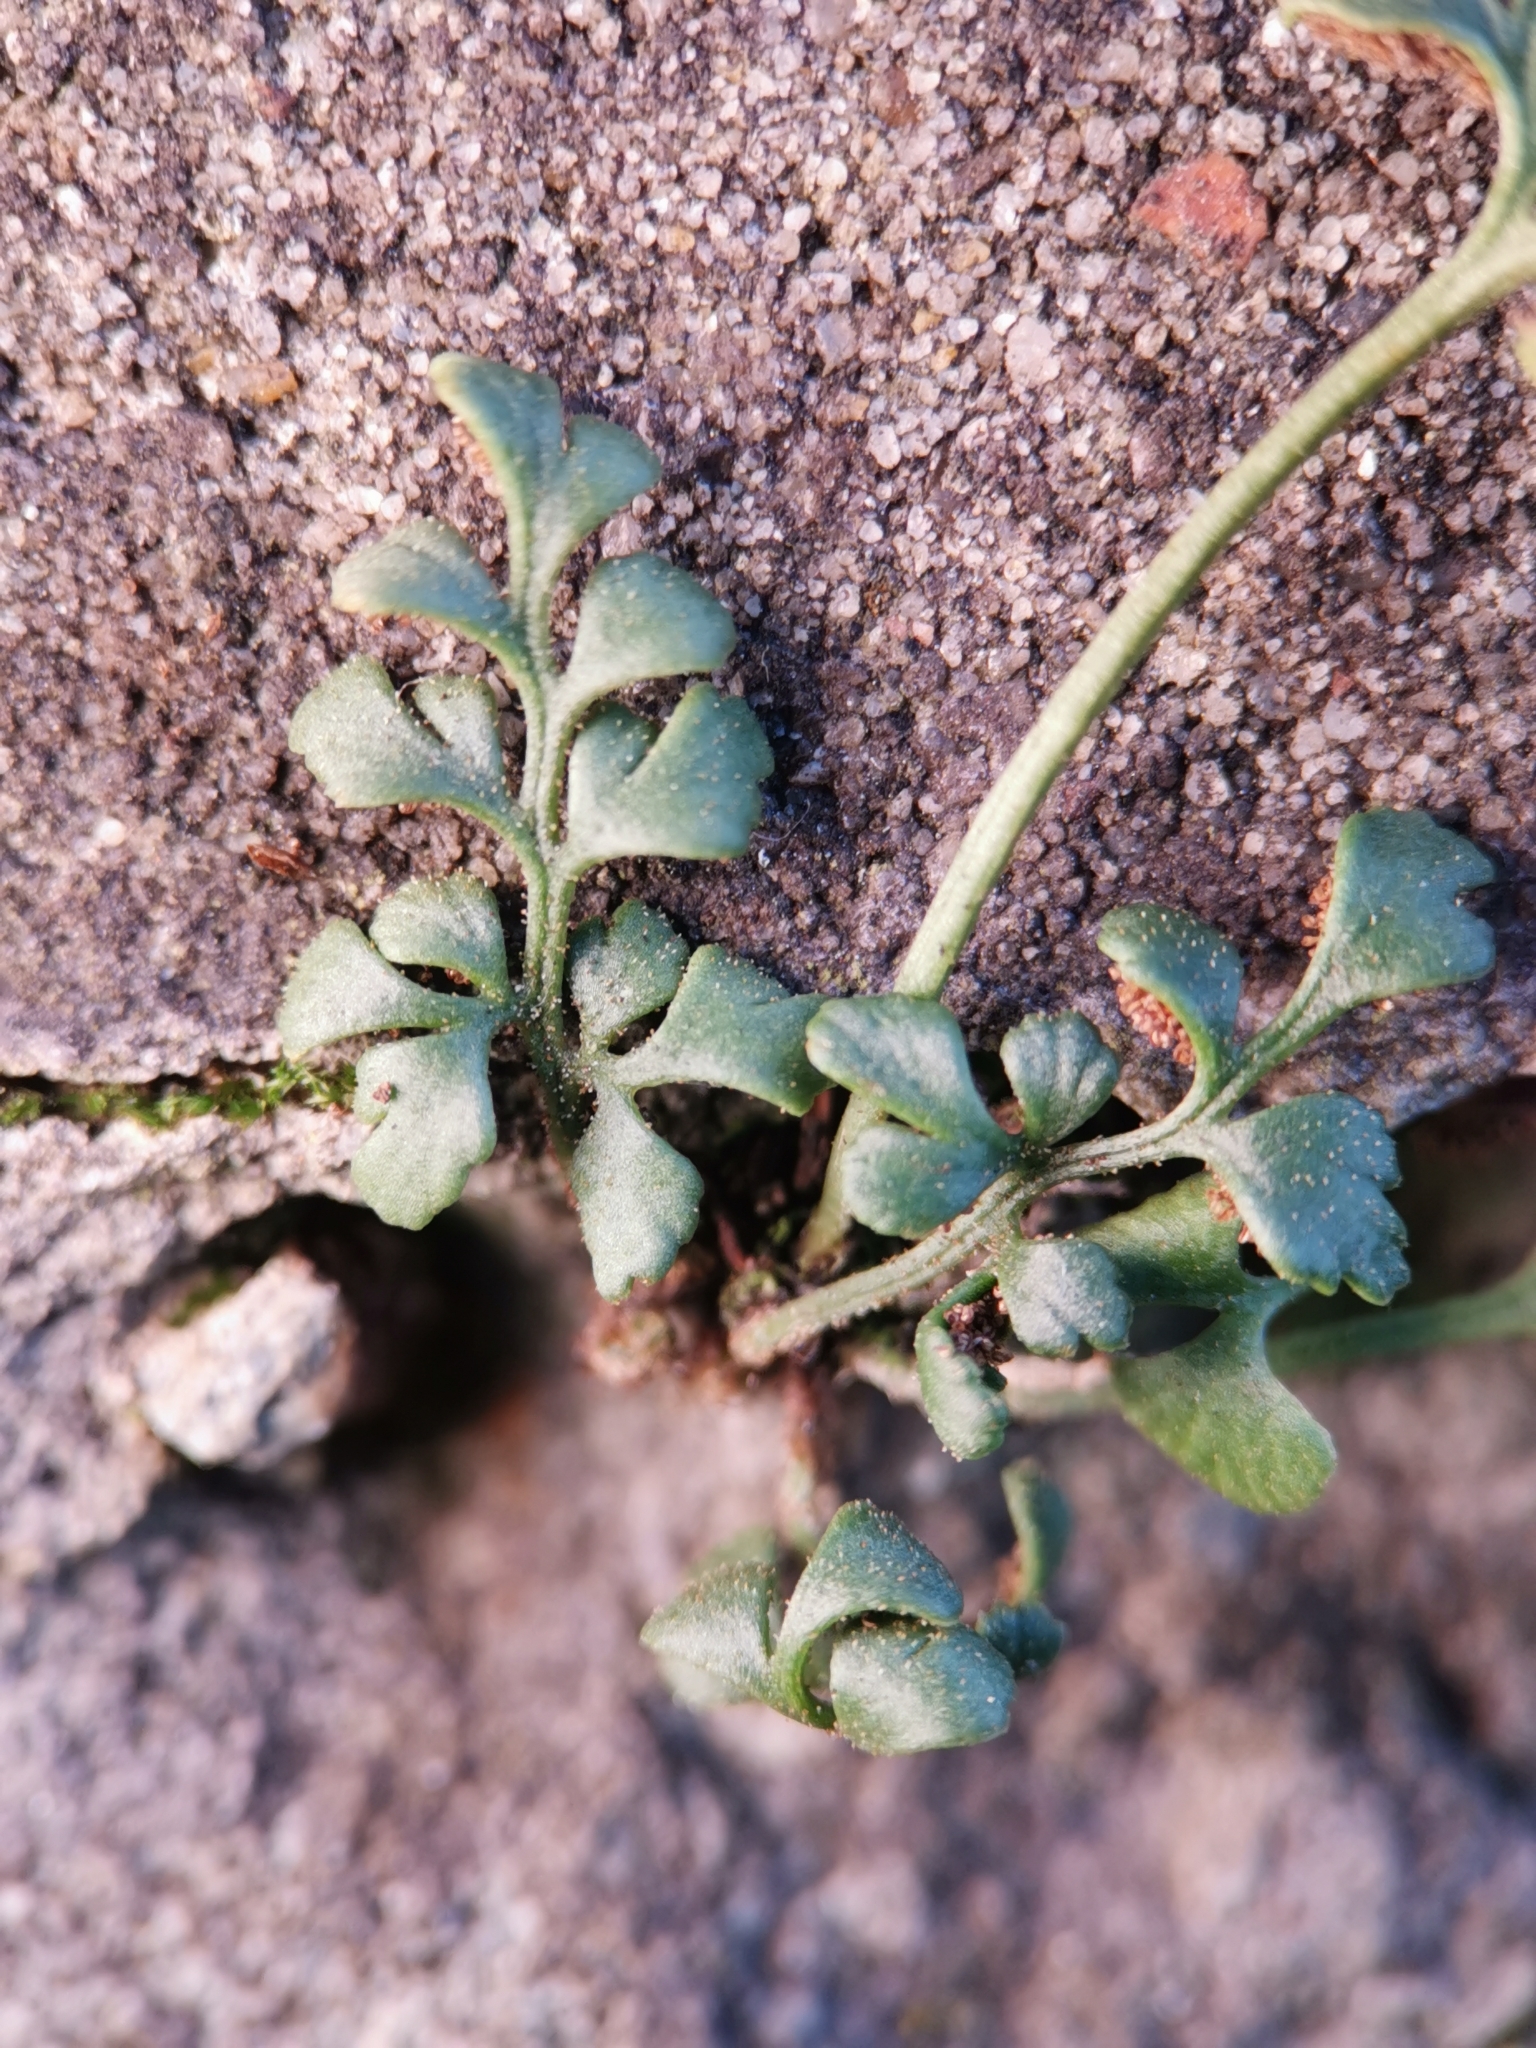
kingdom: Plantae
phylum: Tracheophyta
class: Polypodiopsida
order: Polypodiales
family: Aspleniaceae
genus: Asplenium
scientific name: Asplenium ruta-muraria
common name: Wall-rue
